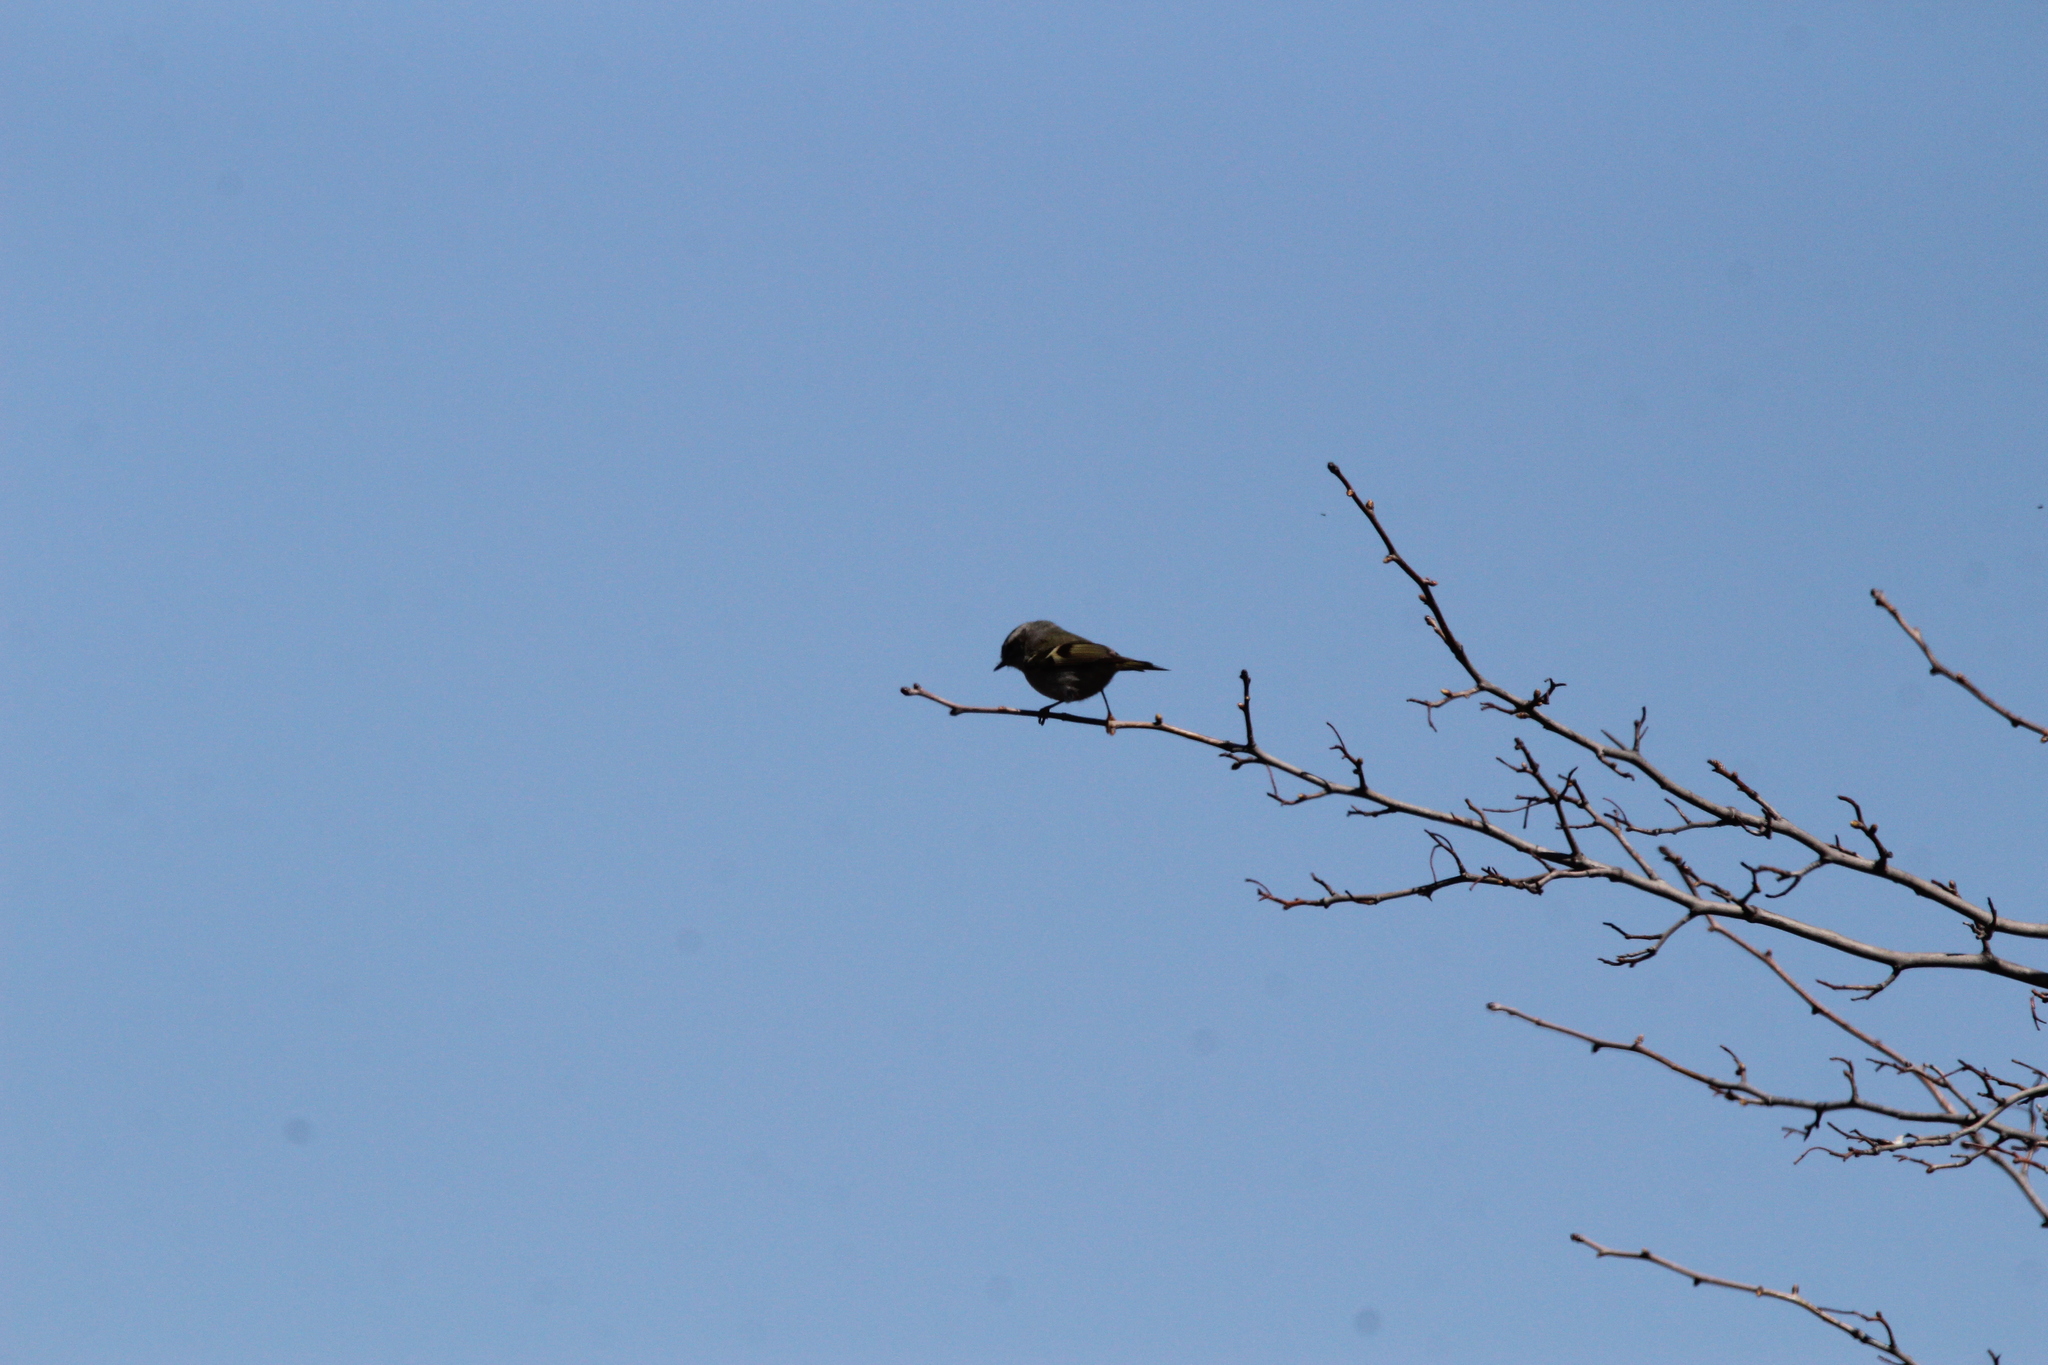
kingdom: Animalia
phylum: Chordata
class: Aves
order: Passeriformes
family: Regulidae
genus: Regulus
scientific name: Regulus satrapa
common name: Golden-crowned kinglet
